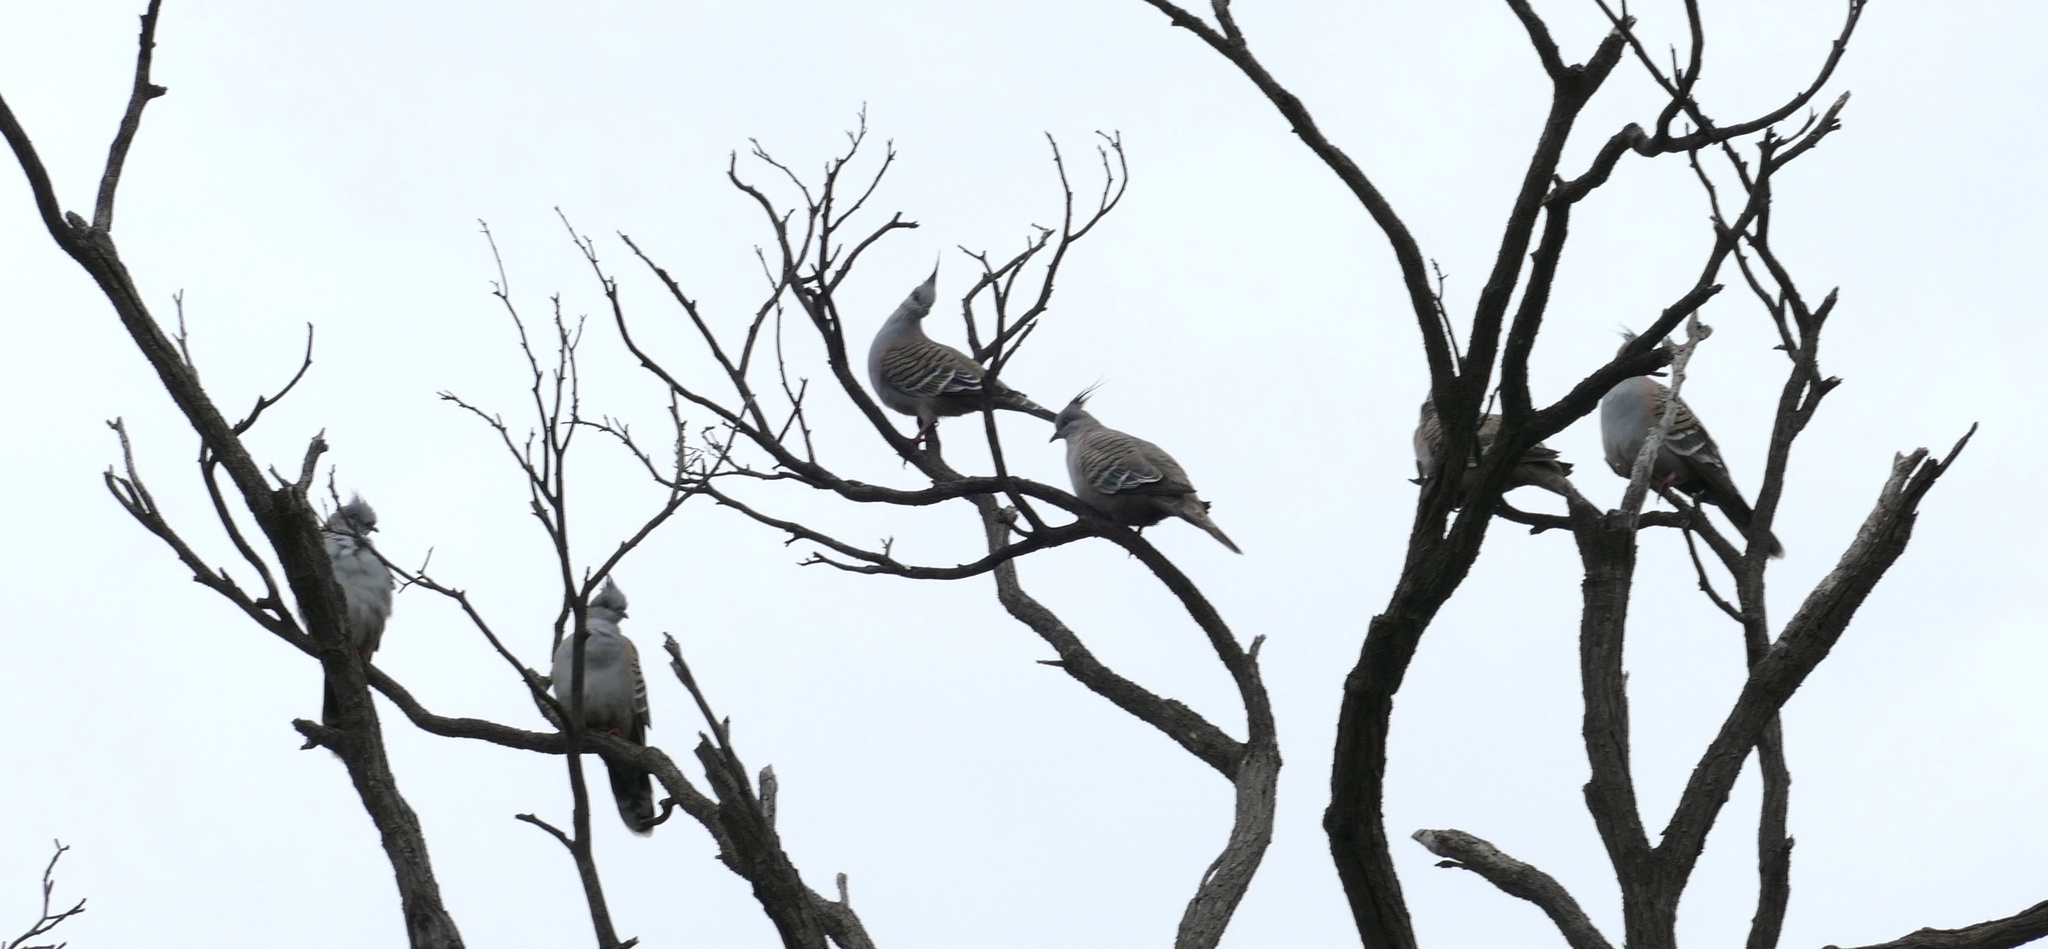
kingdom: Animalia
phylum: Chordata
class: Aves
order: Columbiformes
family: Columbidae
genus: Ocyphaps
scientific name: Ocyphaps lophotes
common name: Crested pigeon
